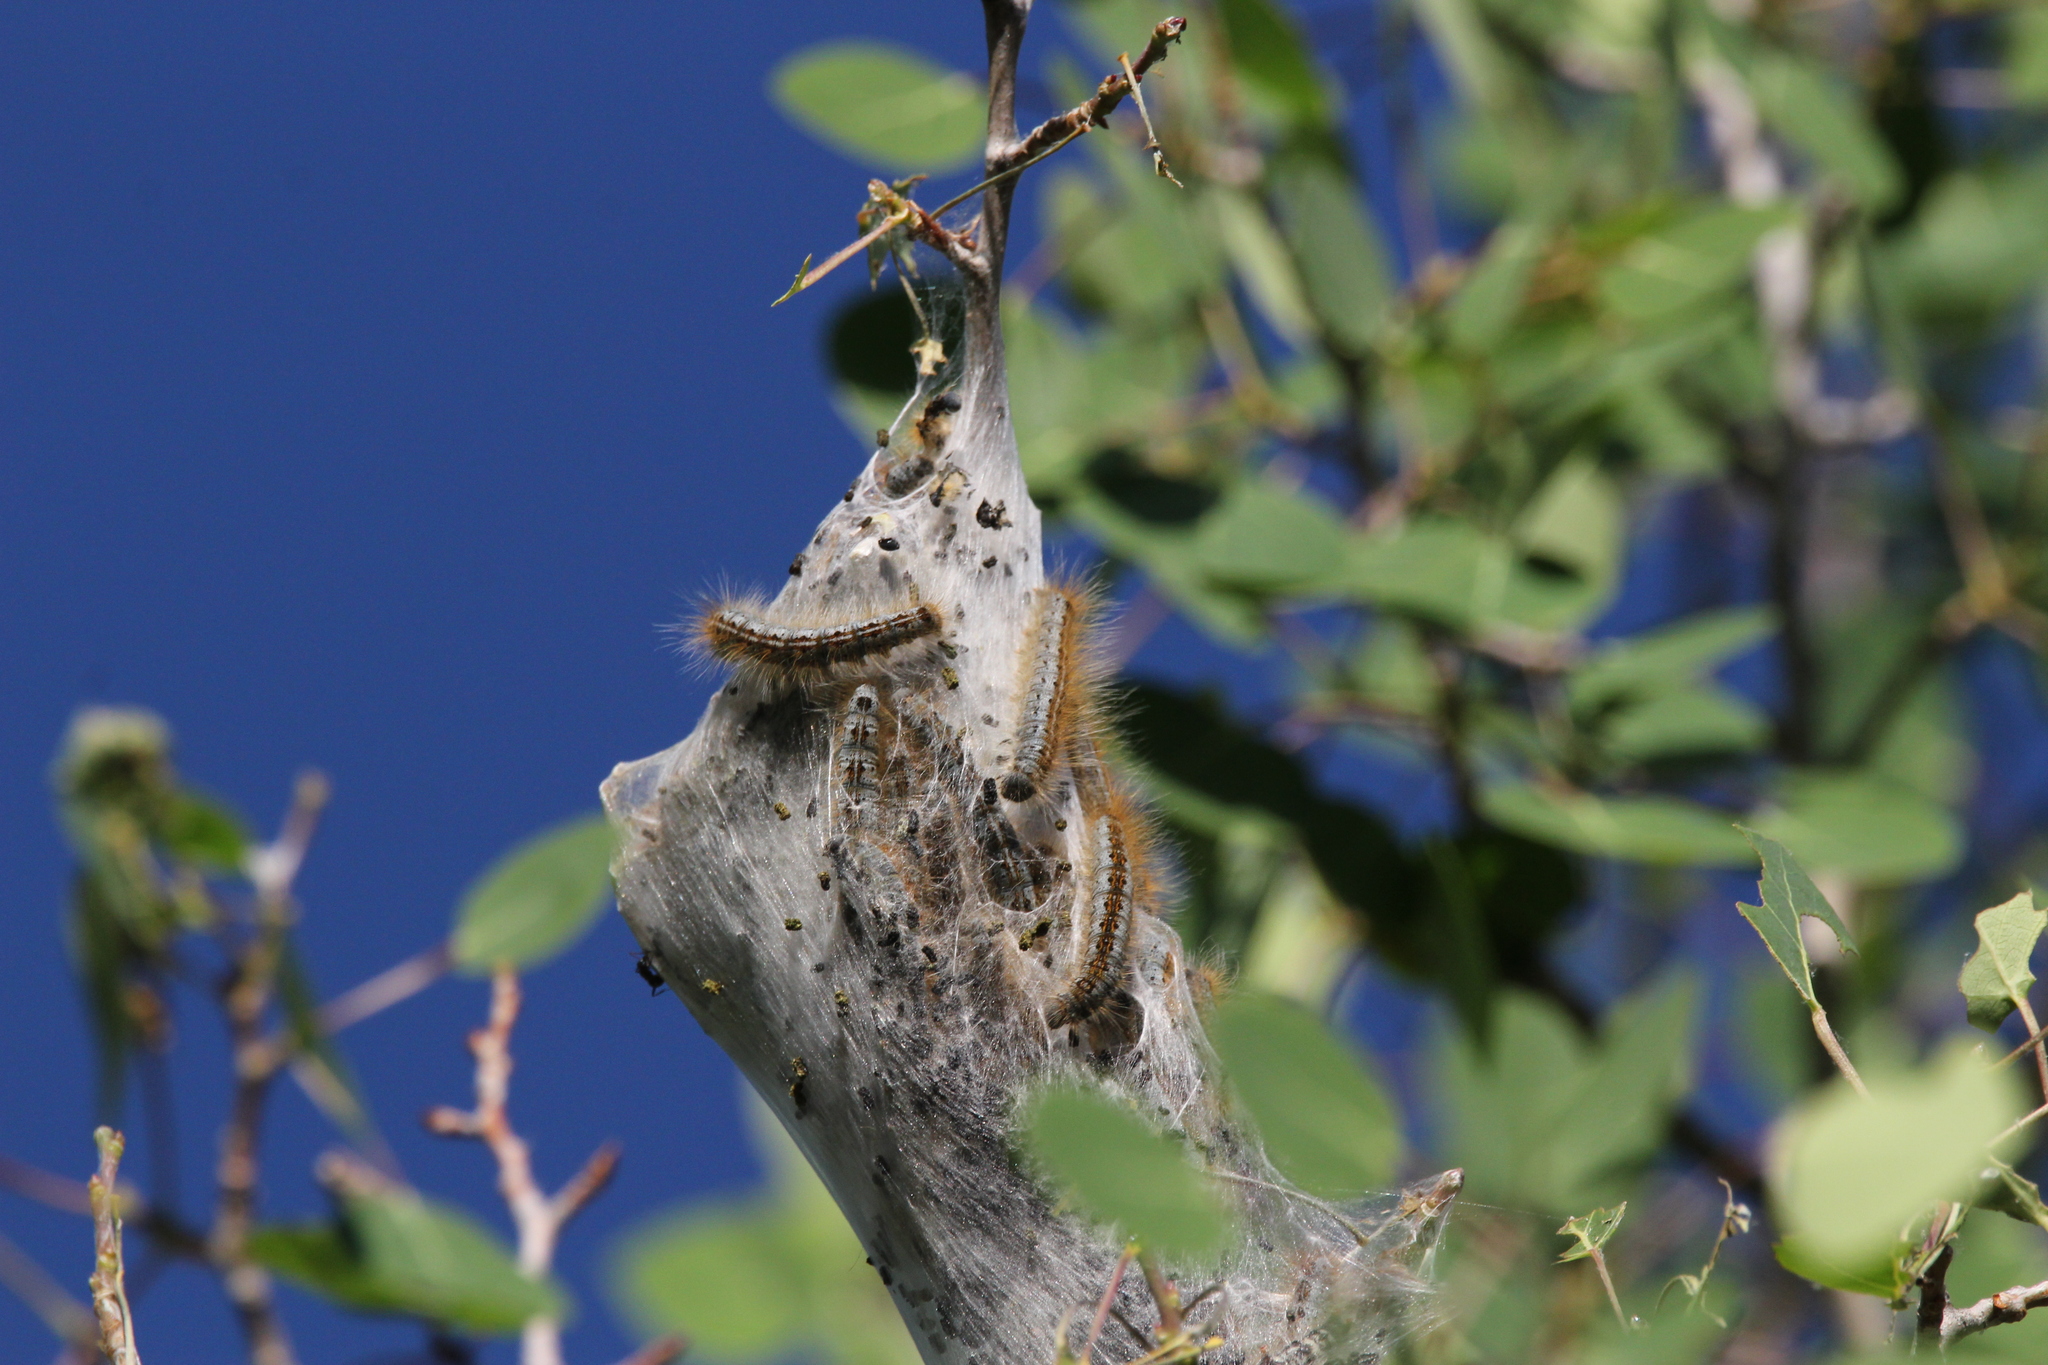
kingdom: Animalia
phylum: Arthropoda
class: Insecta
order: Lepidoptera
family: Lasiocampidae
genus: Malacosoma
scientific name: Malacosoma californica
